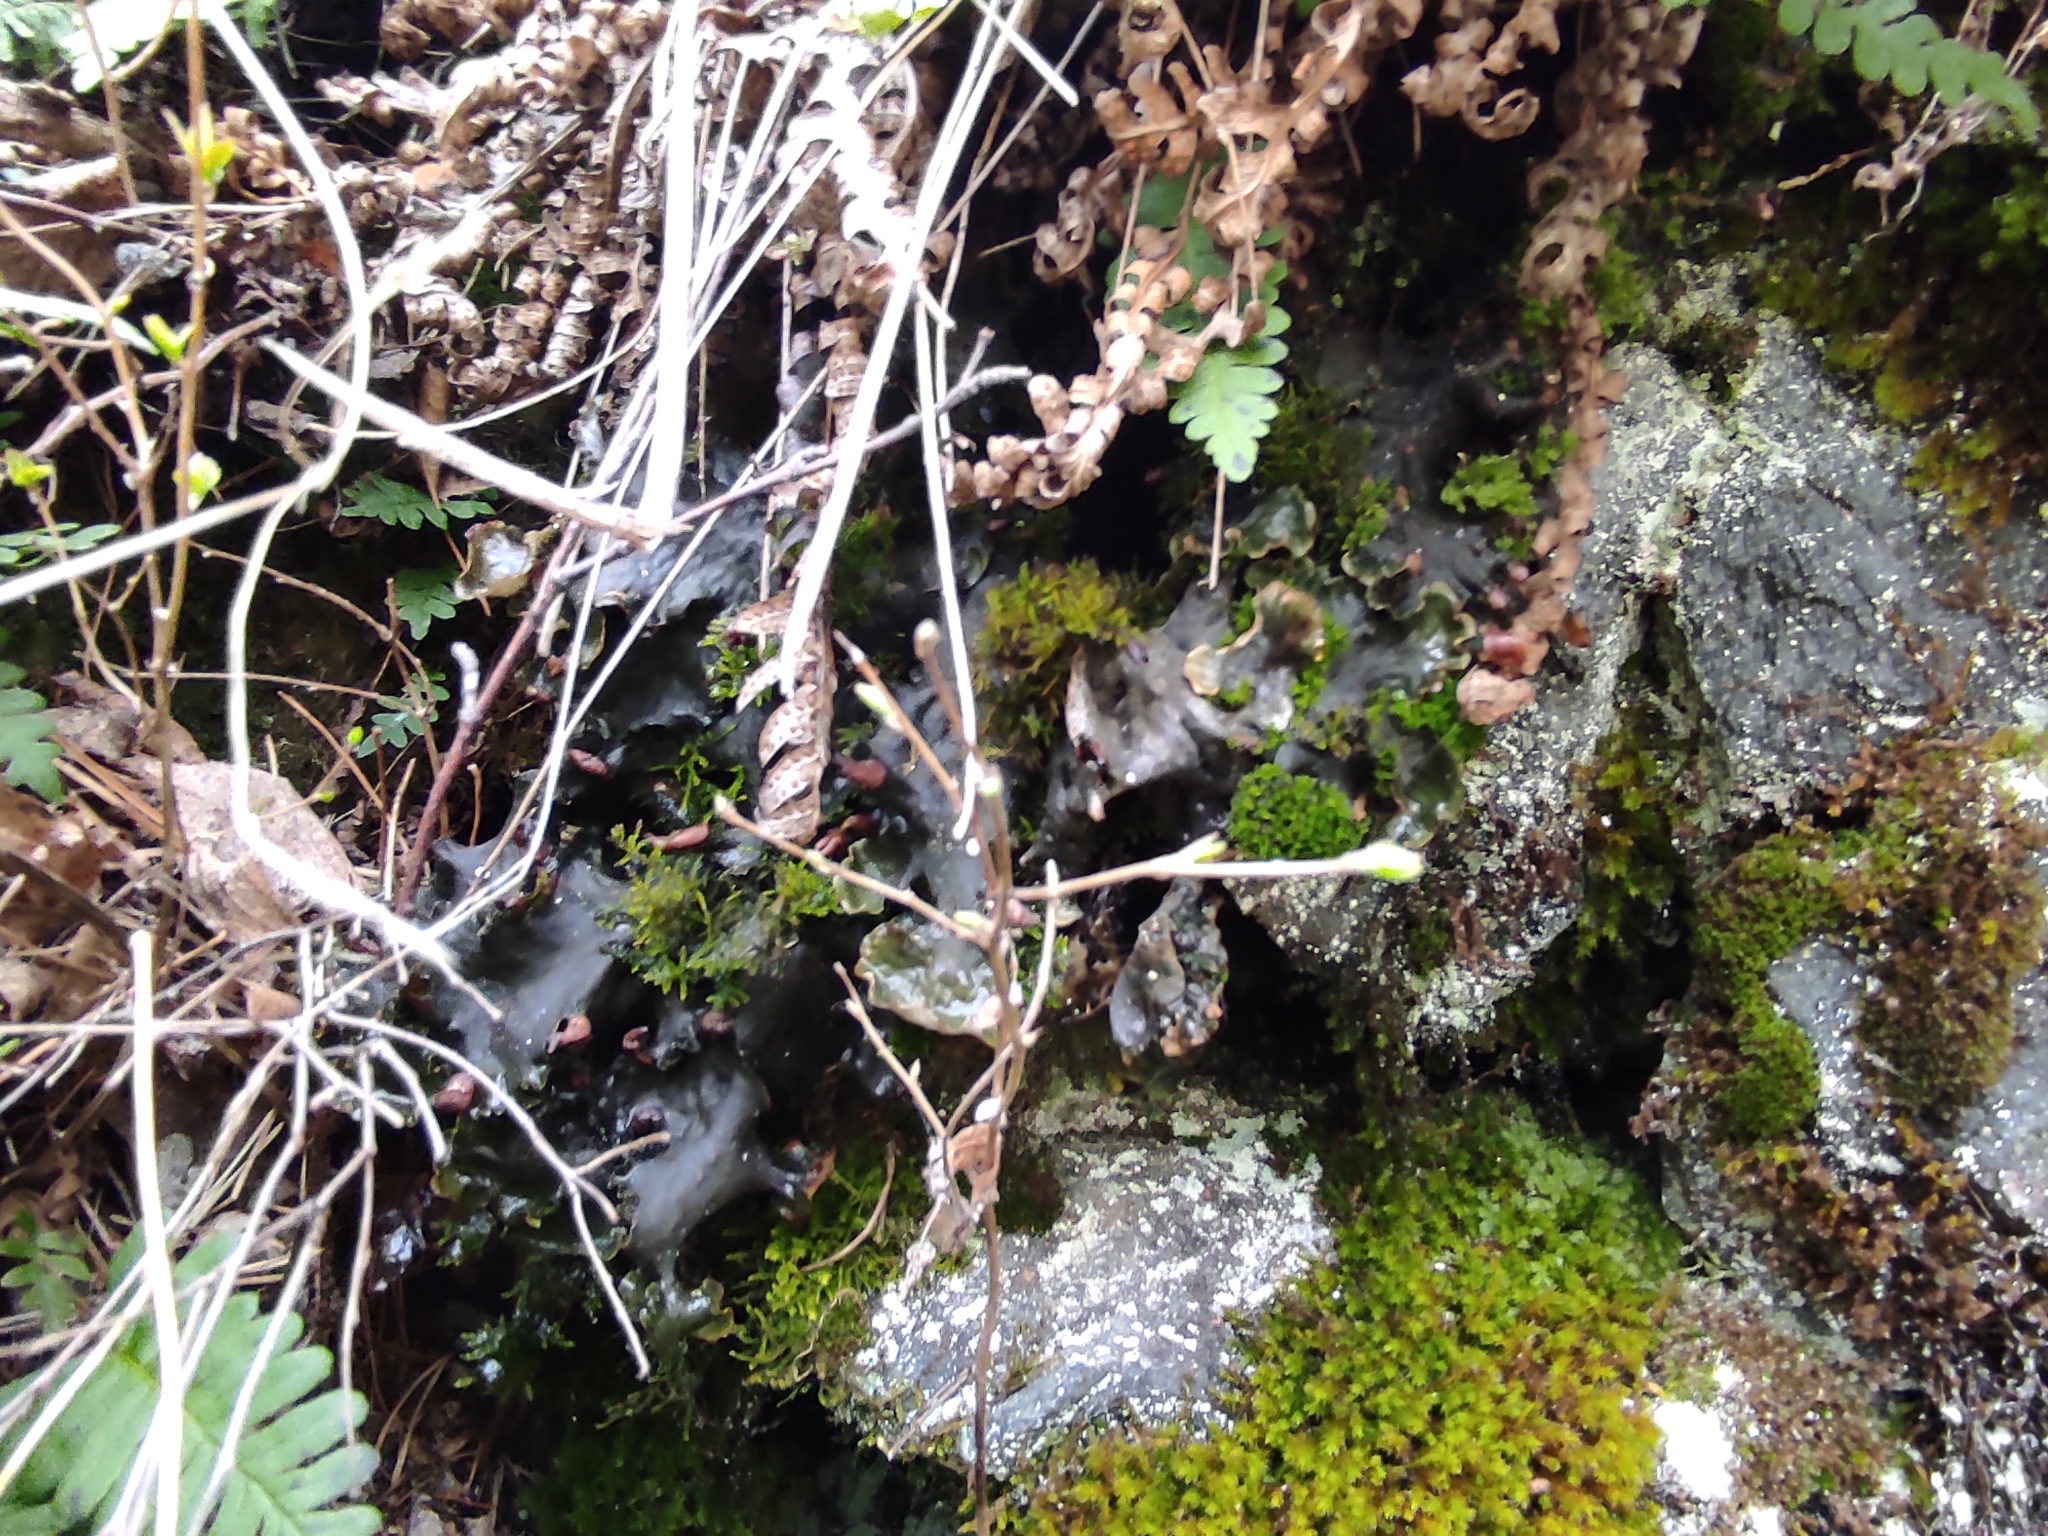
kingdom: Plantae
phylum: Tracheophyta
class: Polypodiopsida
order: Polypodiales
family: Polypodiaceae
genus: Polypodium
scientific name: Polypodium sibiricum
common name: Siberian polypody
